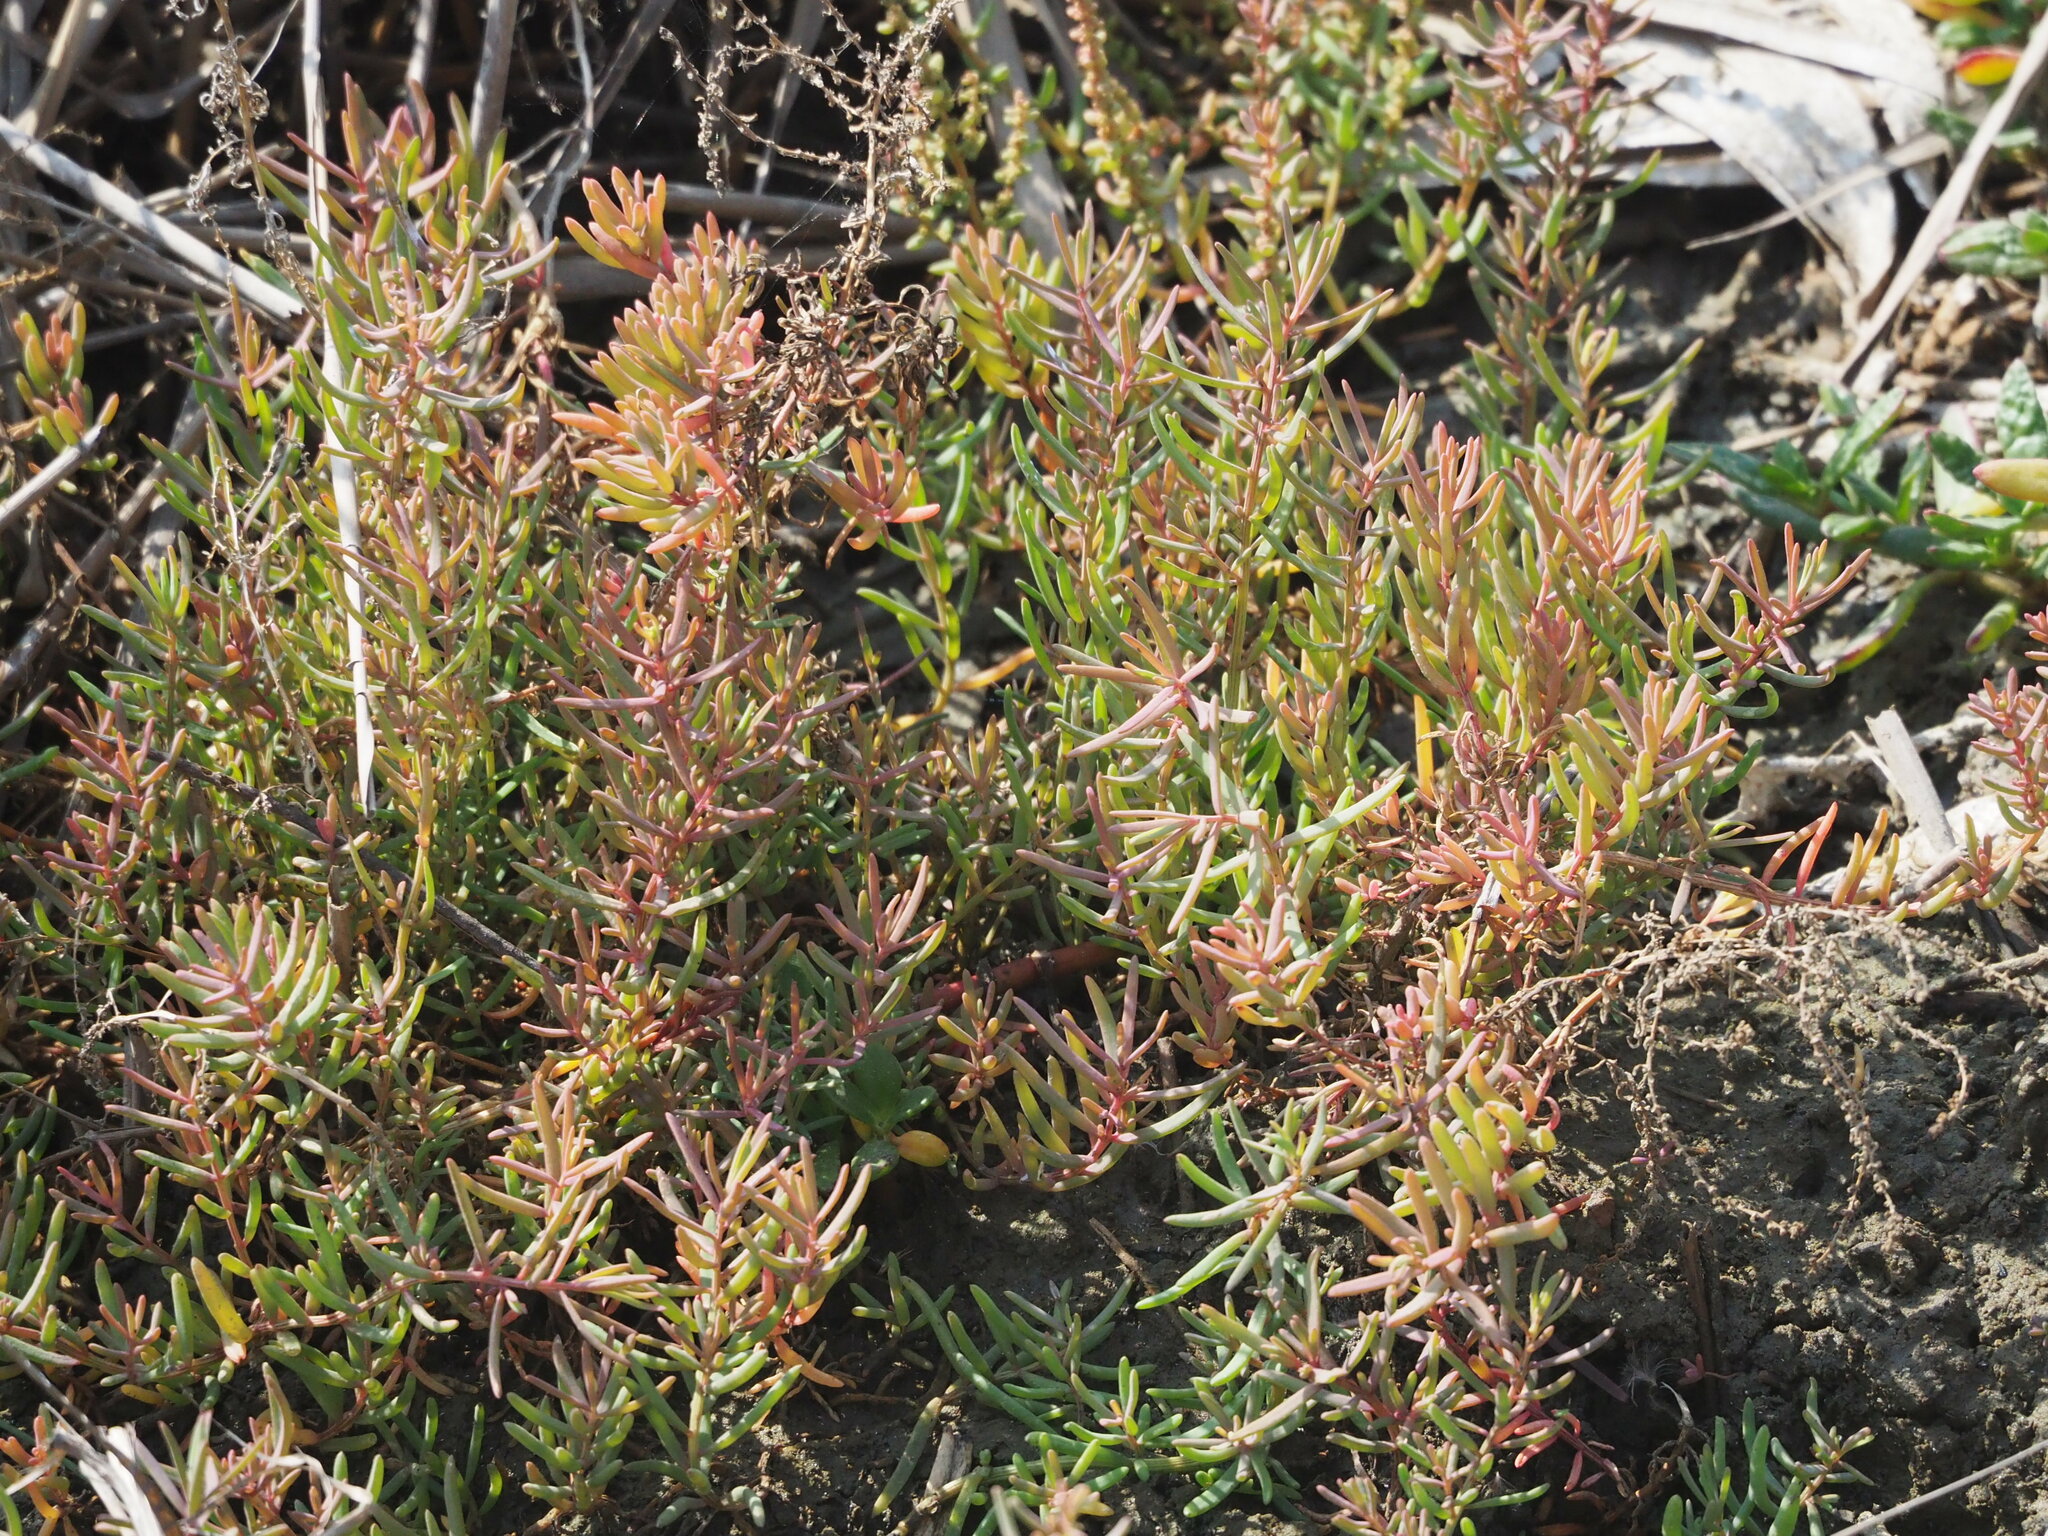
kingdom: Plantae
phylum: Tracheophyta
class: Magnoliopsida
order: Caryophyllales
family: Amaranthaceae
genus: Suaeda
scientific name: Suaeda maritima
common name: Annual sea-blite
